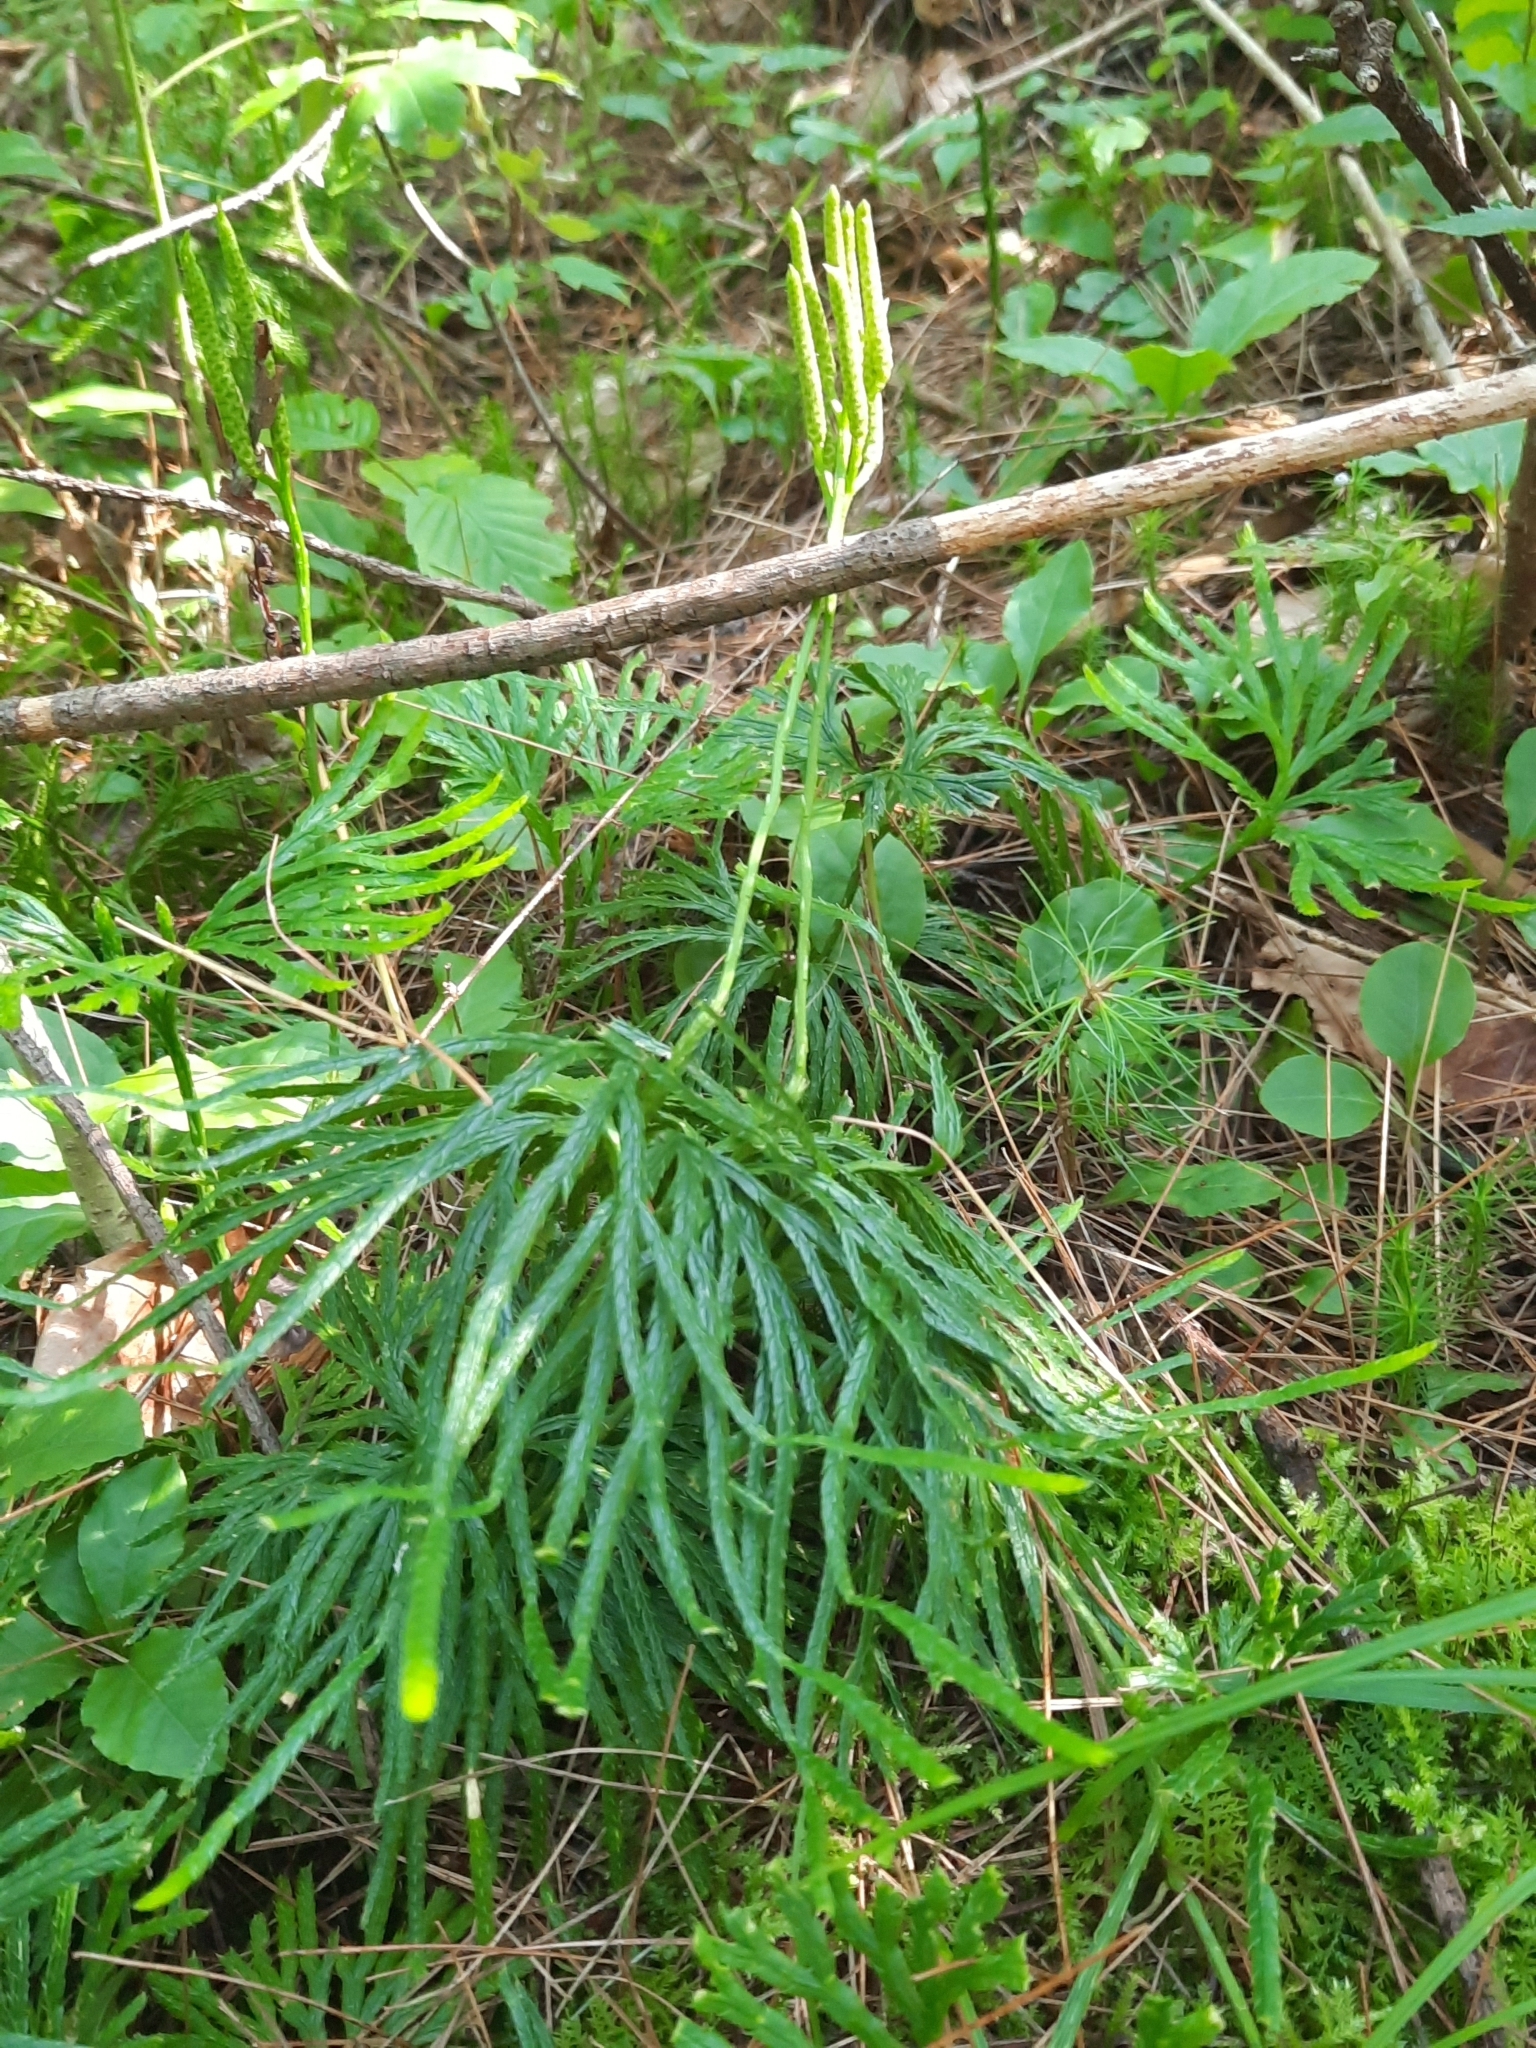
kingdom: Plantae
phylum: Tracheophyta
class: Lycopodiopsida
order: Lycopodiales
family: Lycopodiaceae
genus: Diphasiastrum
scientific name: Diphasiastrum digitatum
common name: Southern running-pine
